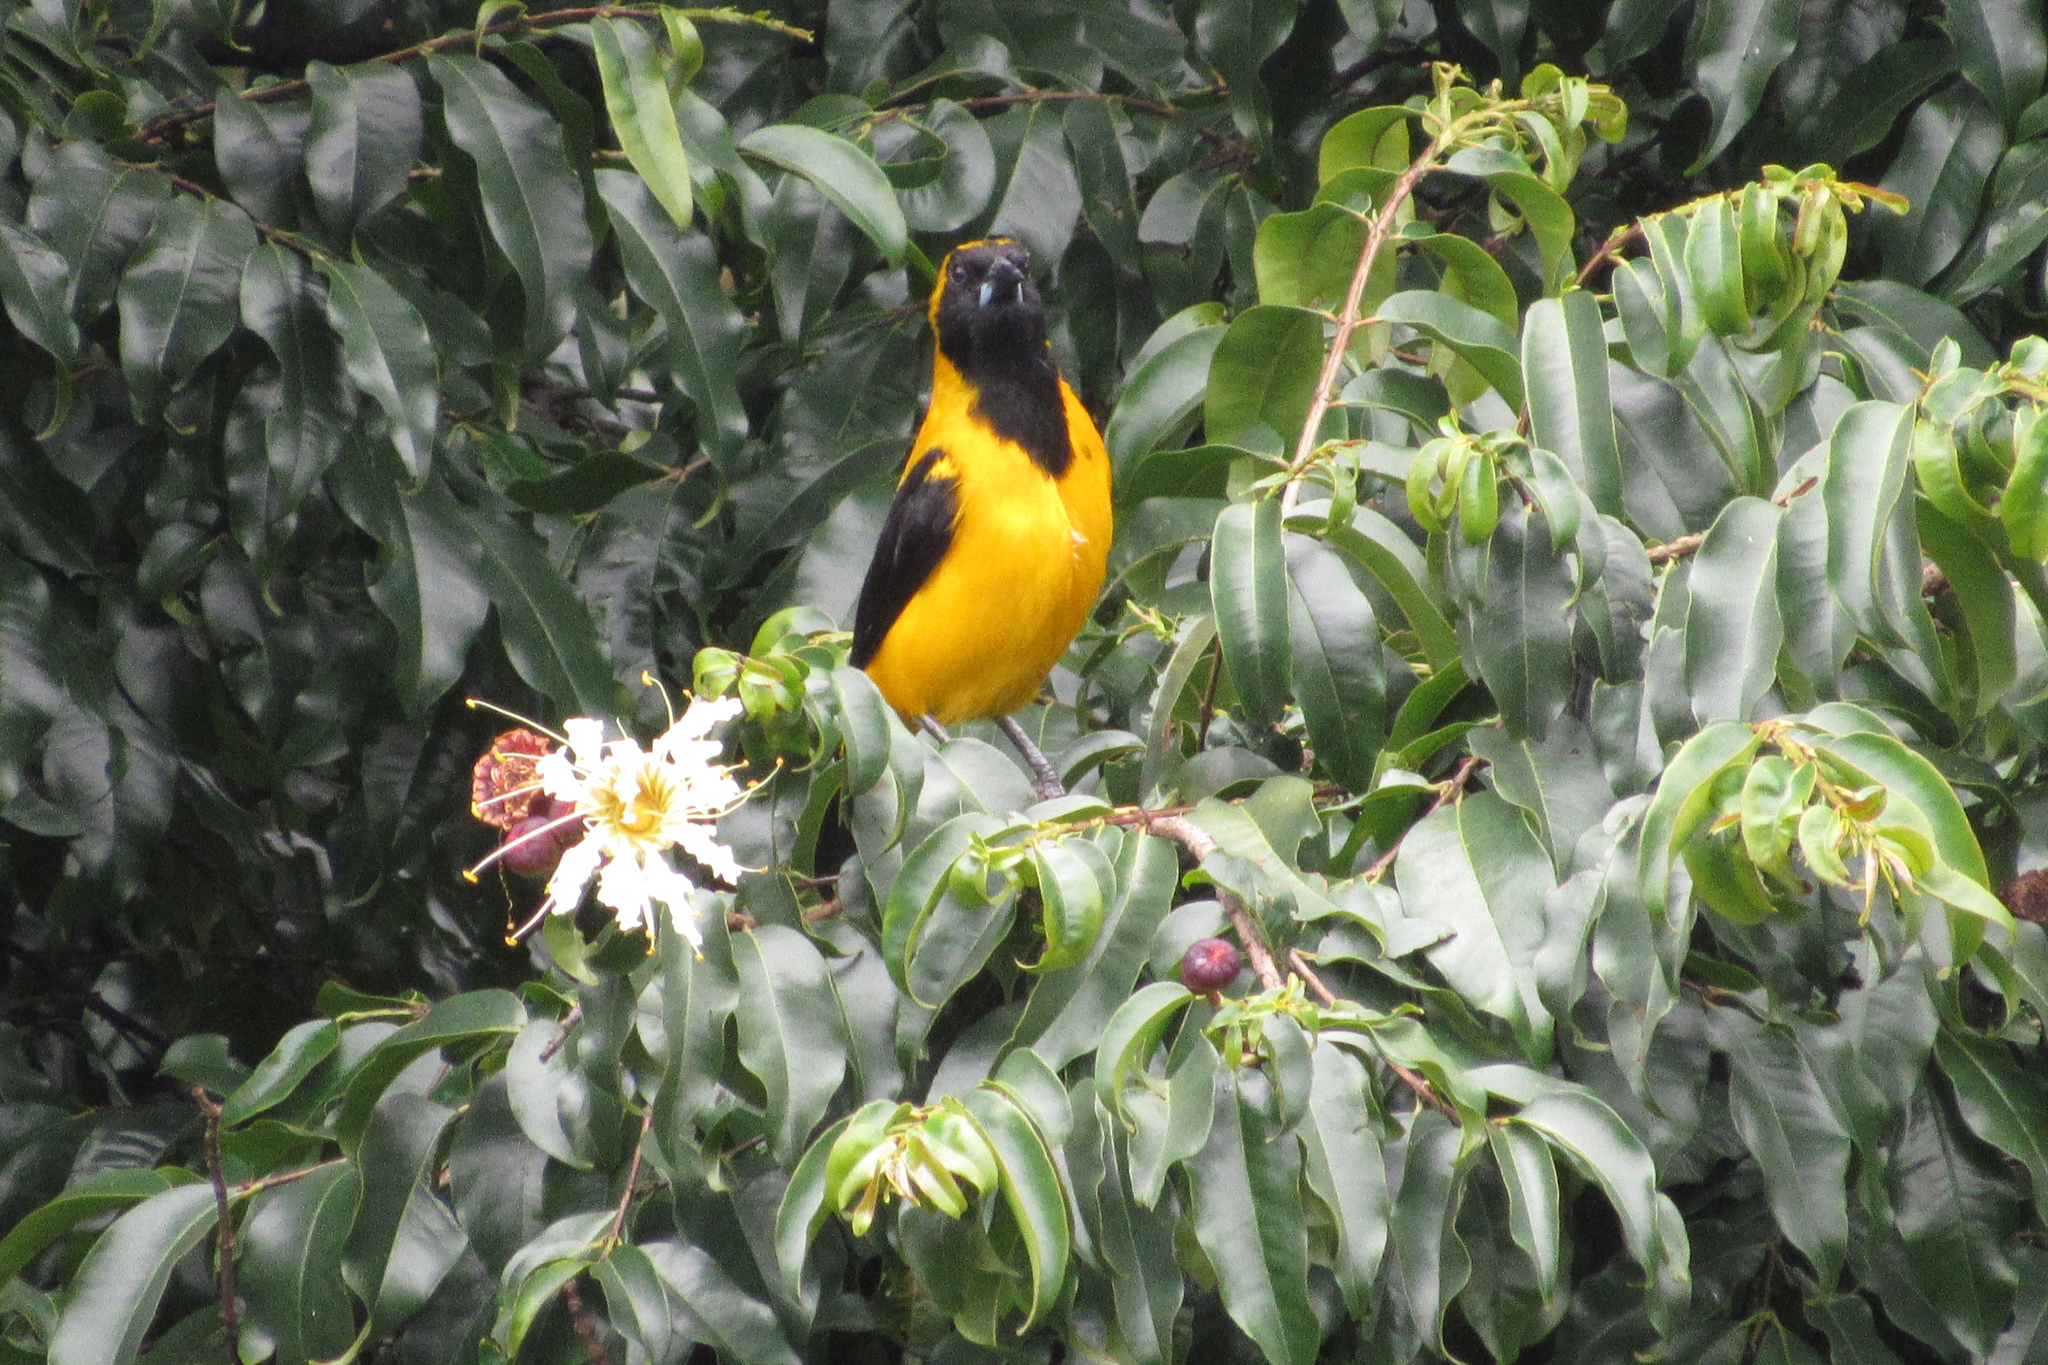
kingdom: Animalia
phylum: Chordata
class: Aves
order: Passeriformes
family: Icteridae
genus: Icterus
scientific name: Icterus chrysater
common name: Yellow-backed oriole
